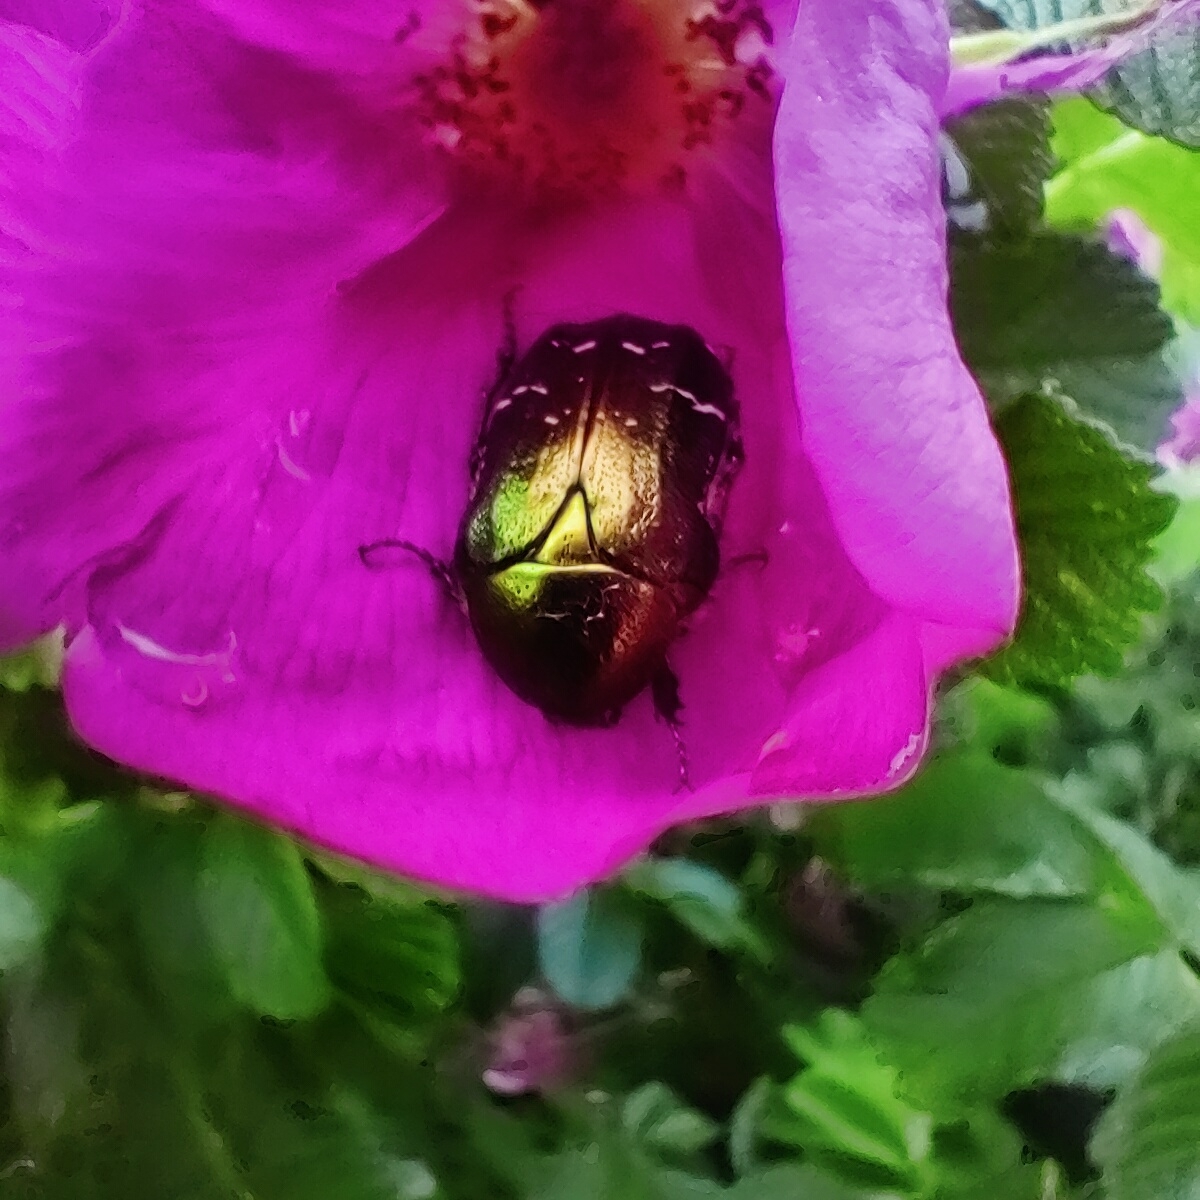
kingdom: Animalia
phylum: Arthropoda
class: Insecta
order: Coleoptera
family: Scarabaeidae
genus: Cetonia
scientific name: Cetonia aurata
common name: Rose chafer
